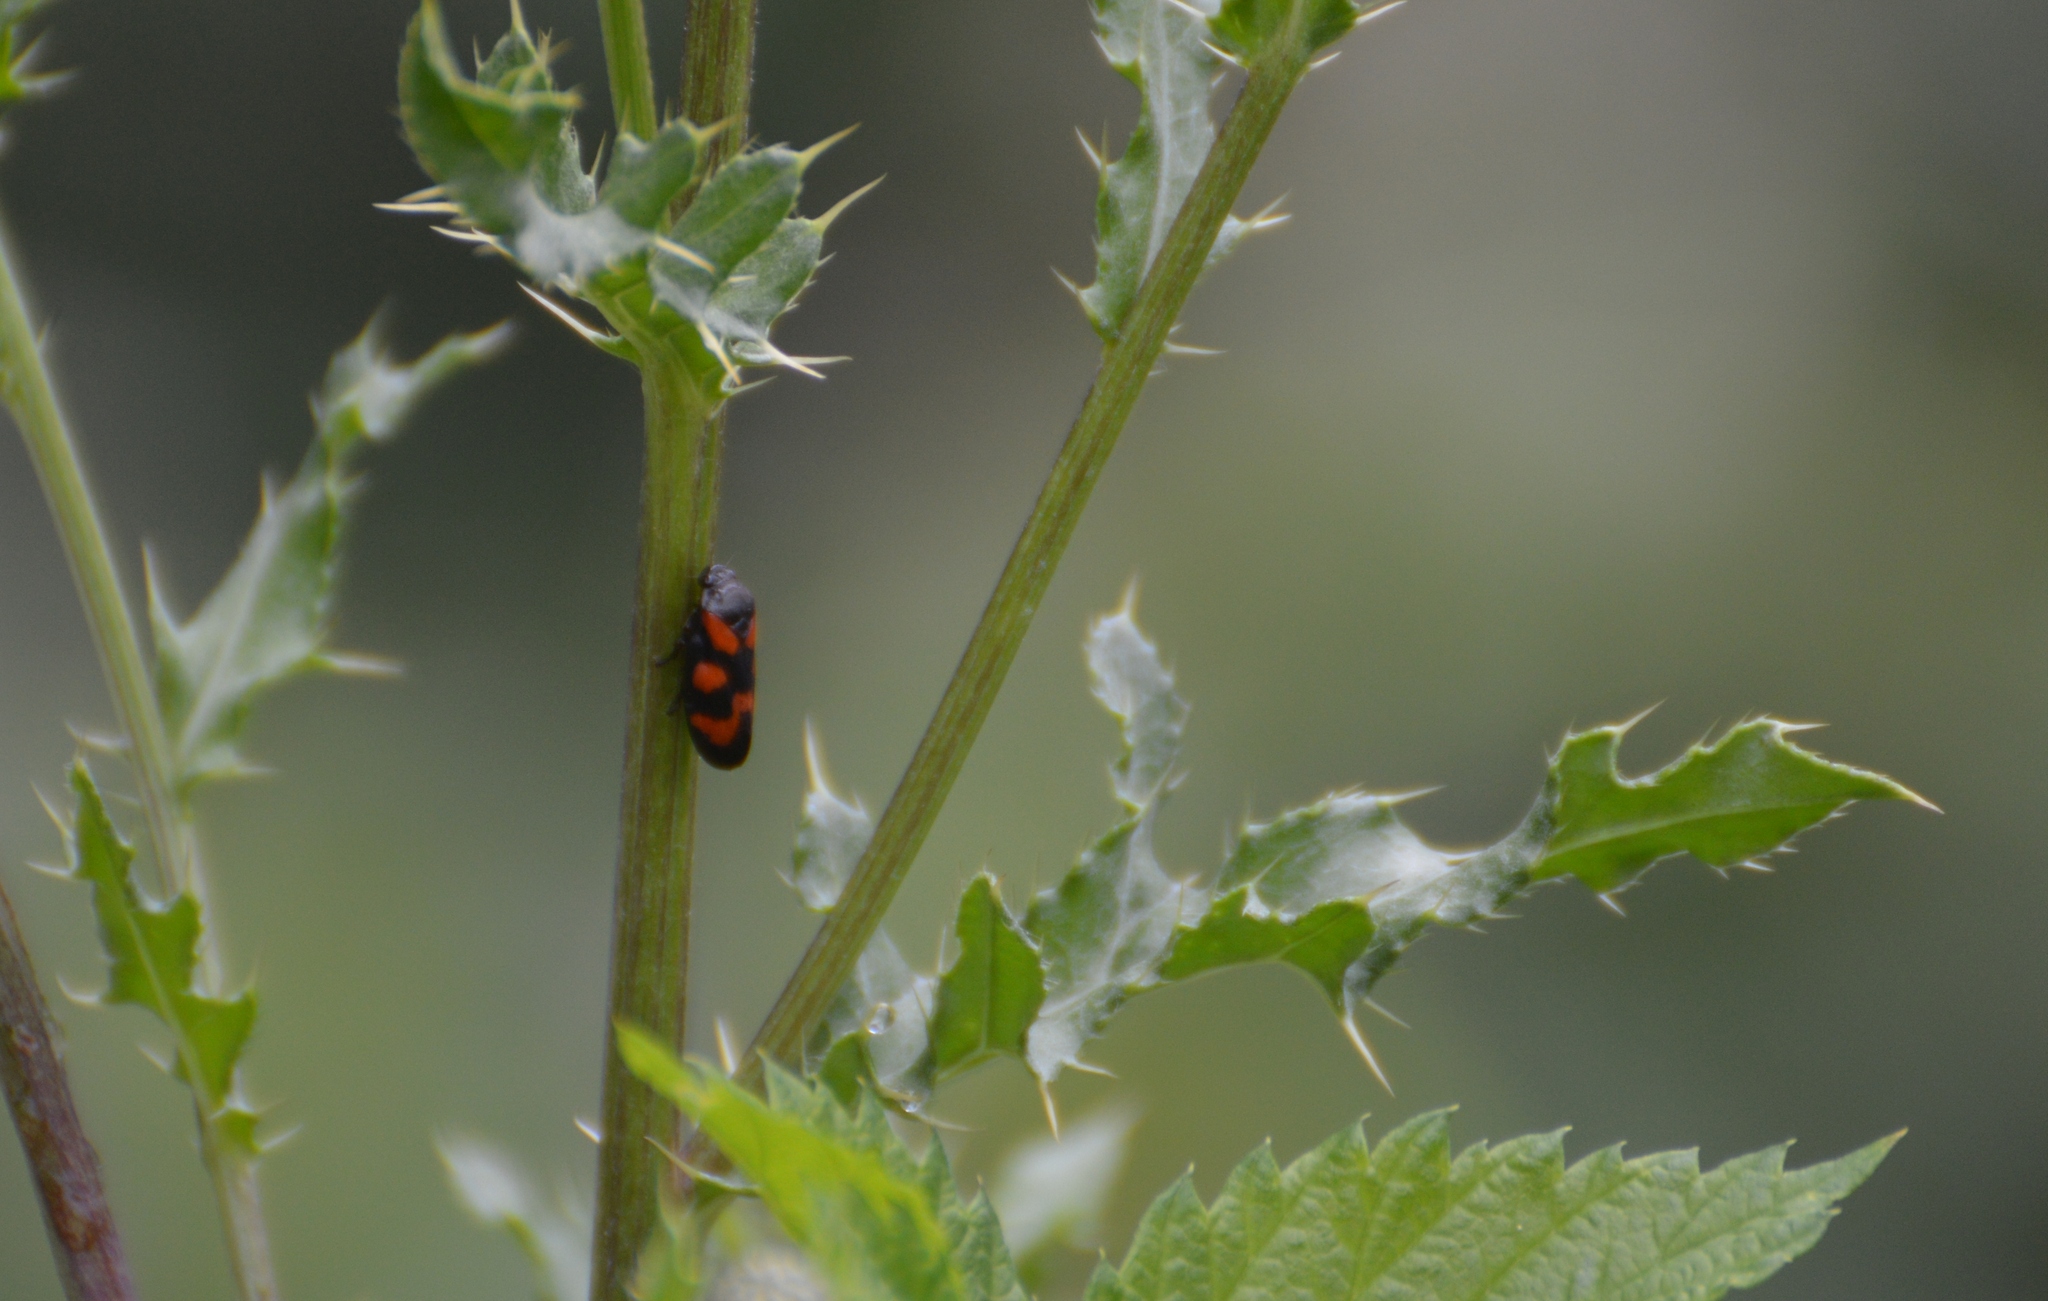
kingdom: Animalia
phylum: Arthropoda
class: Insecta
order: Hemiptera
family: Cercopidae
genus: Cercopis
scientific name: Cercopis vulnerata
